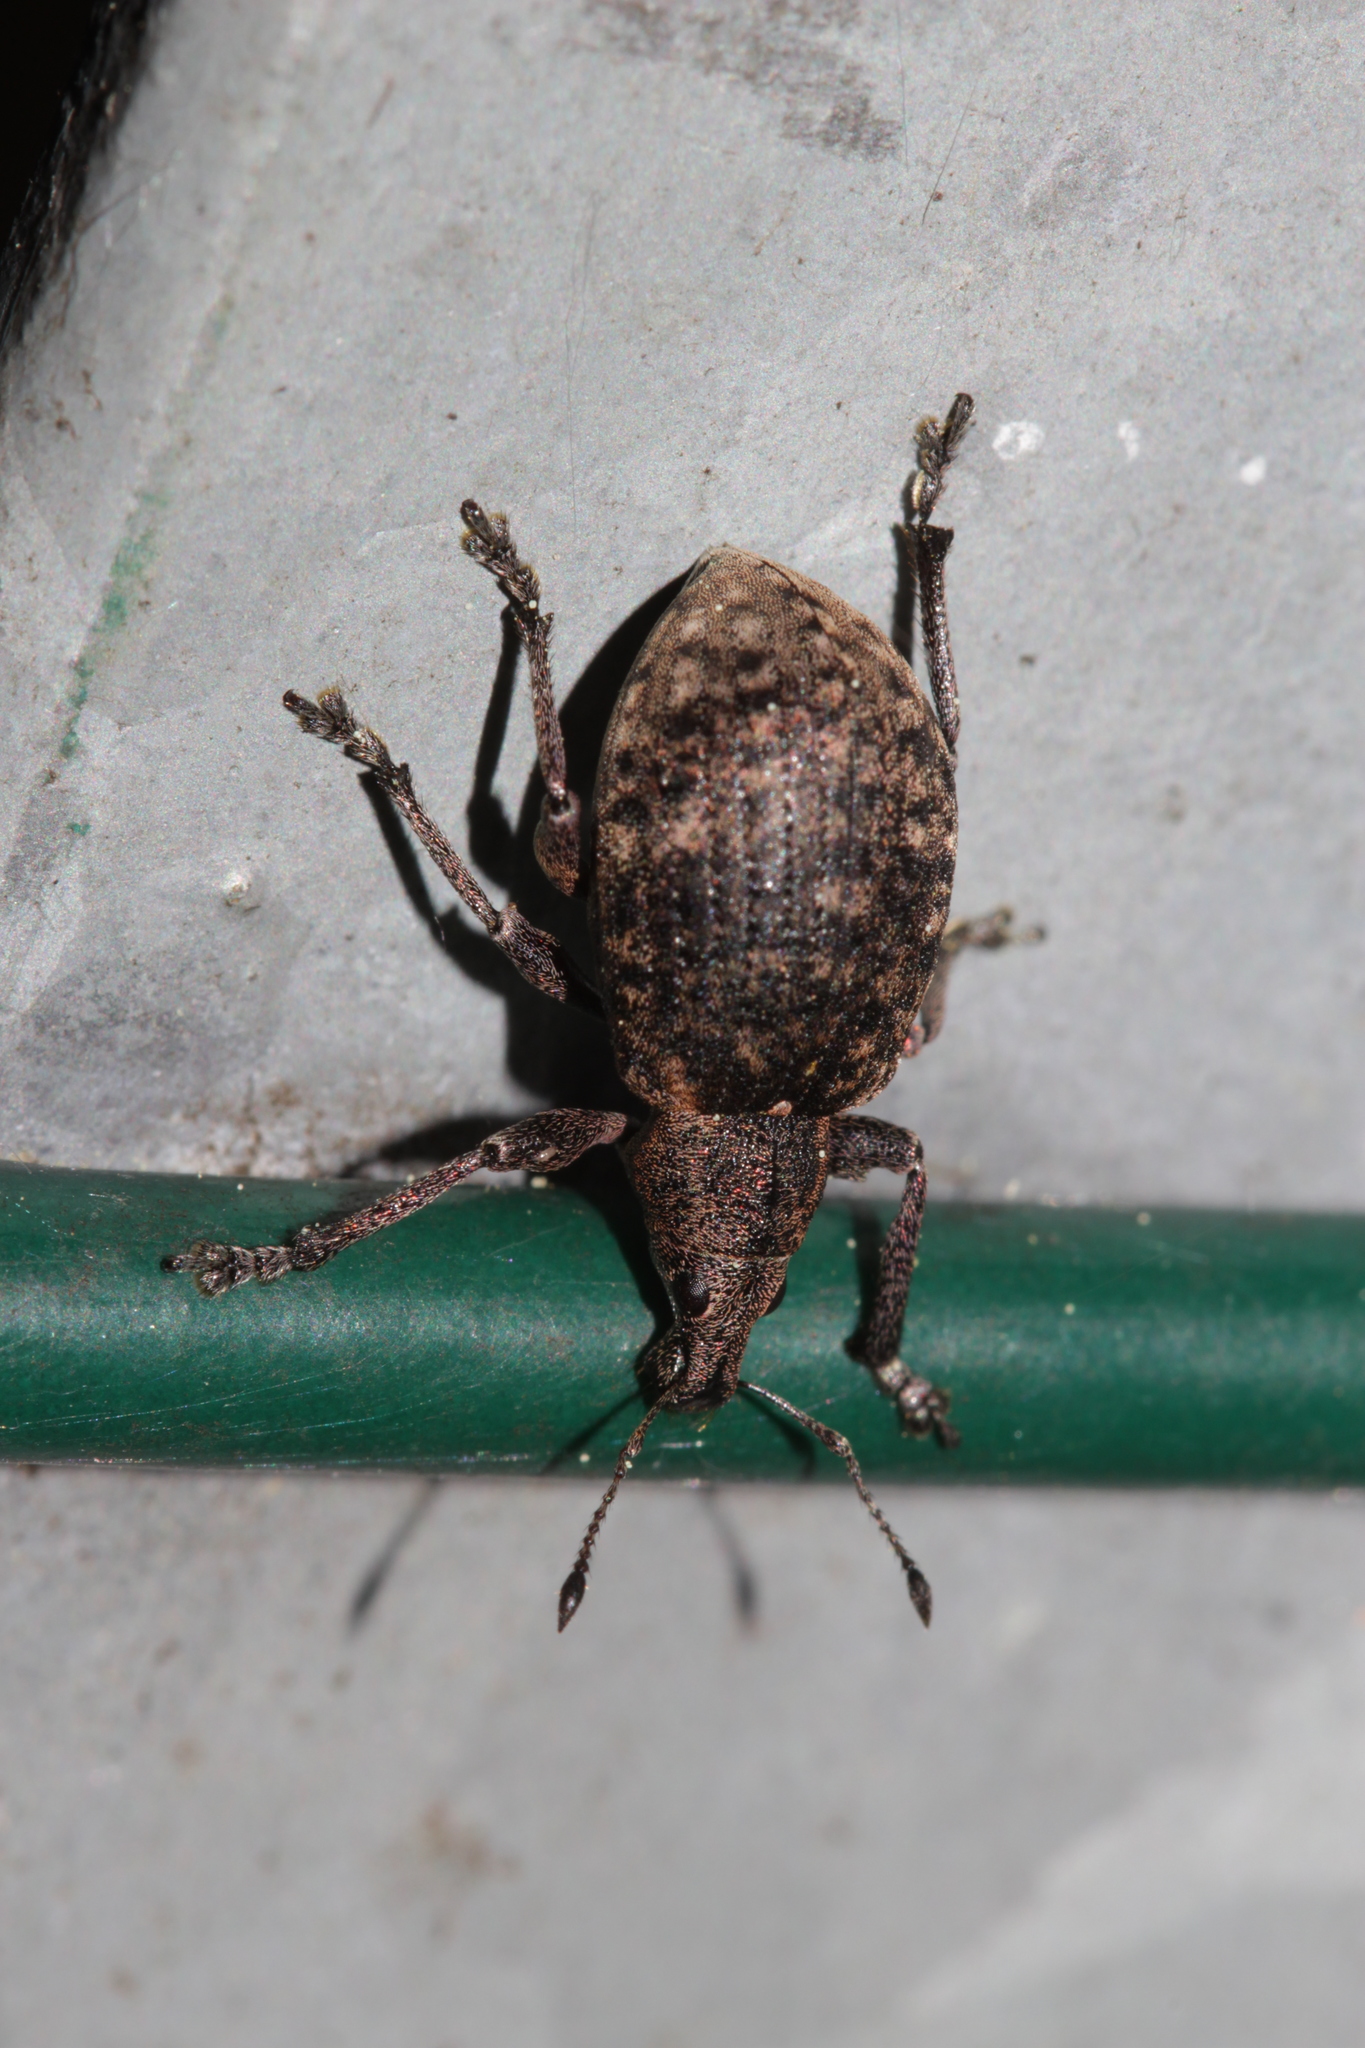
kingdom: Animalia
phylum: Arthropoda
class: Insecta
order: Coleoptera
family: Curculionidae
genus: Liophloeus
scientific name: Liophloeus tessulatus
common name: Weevil
